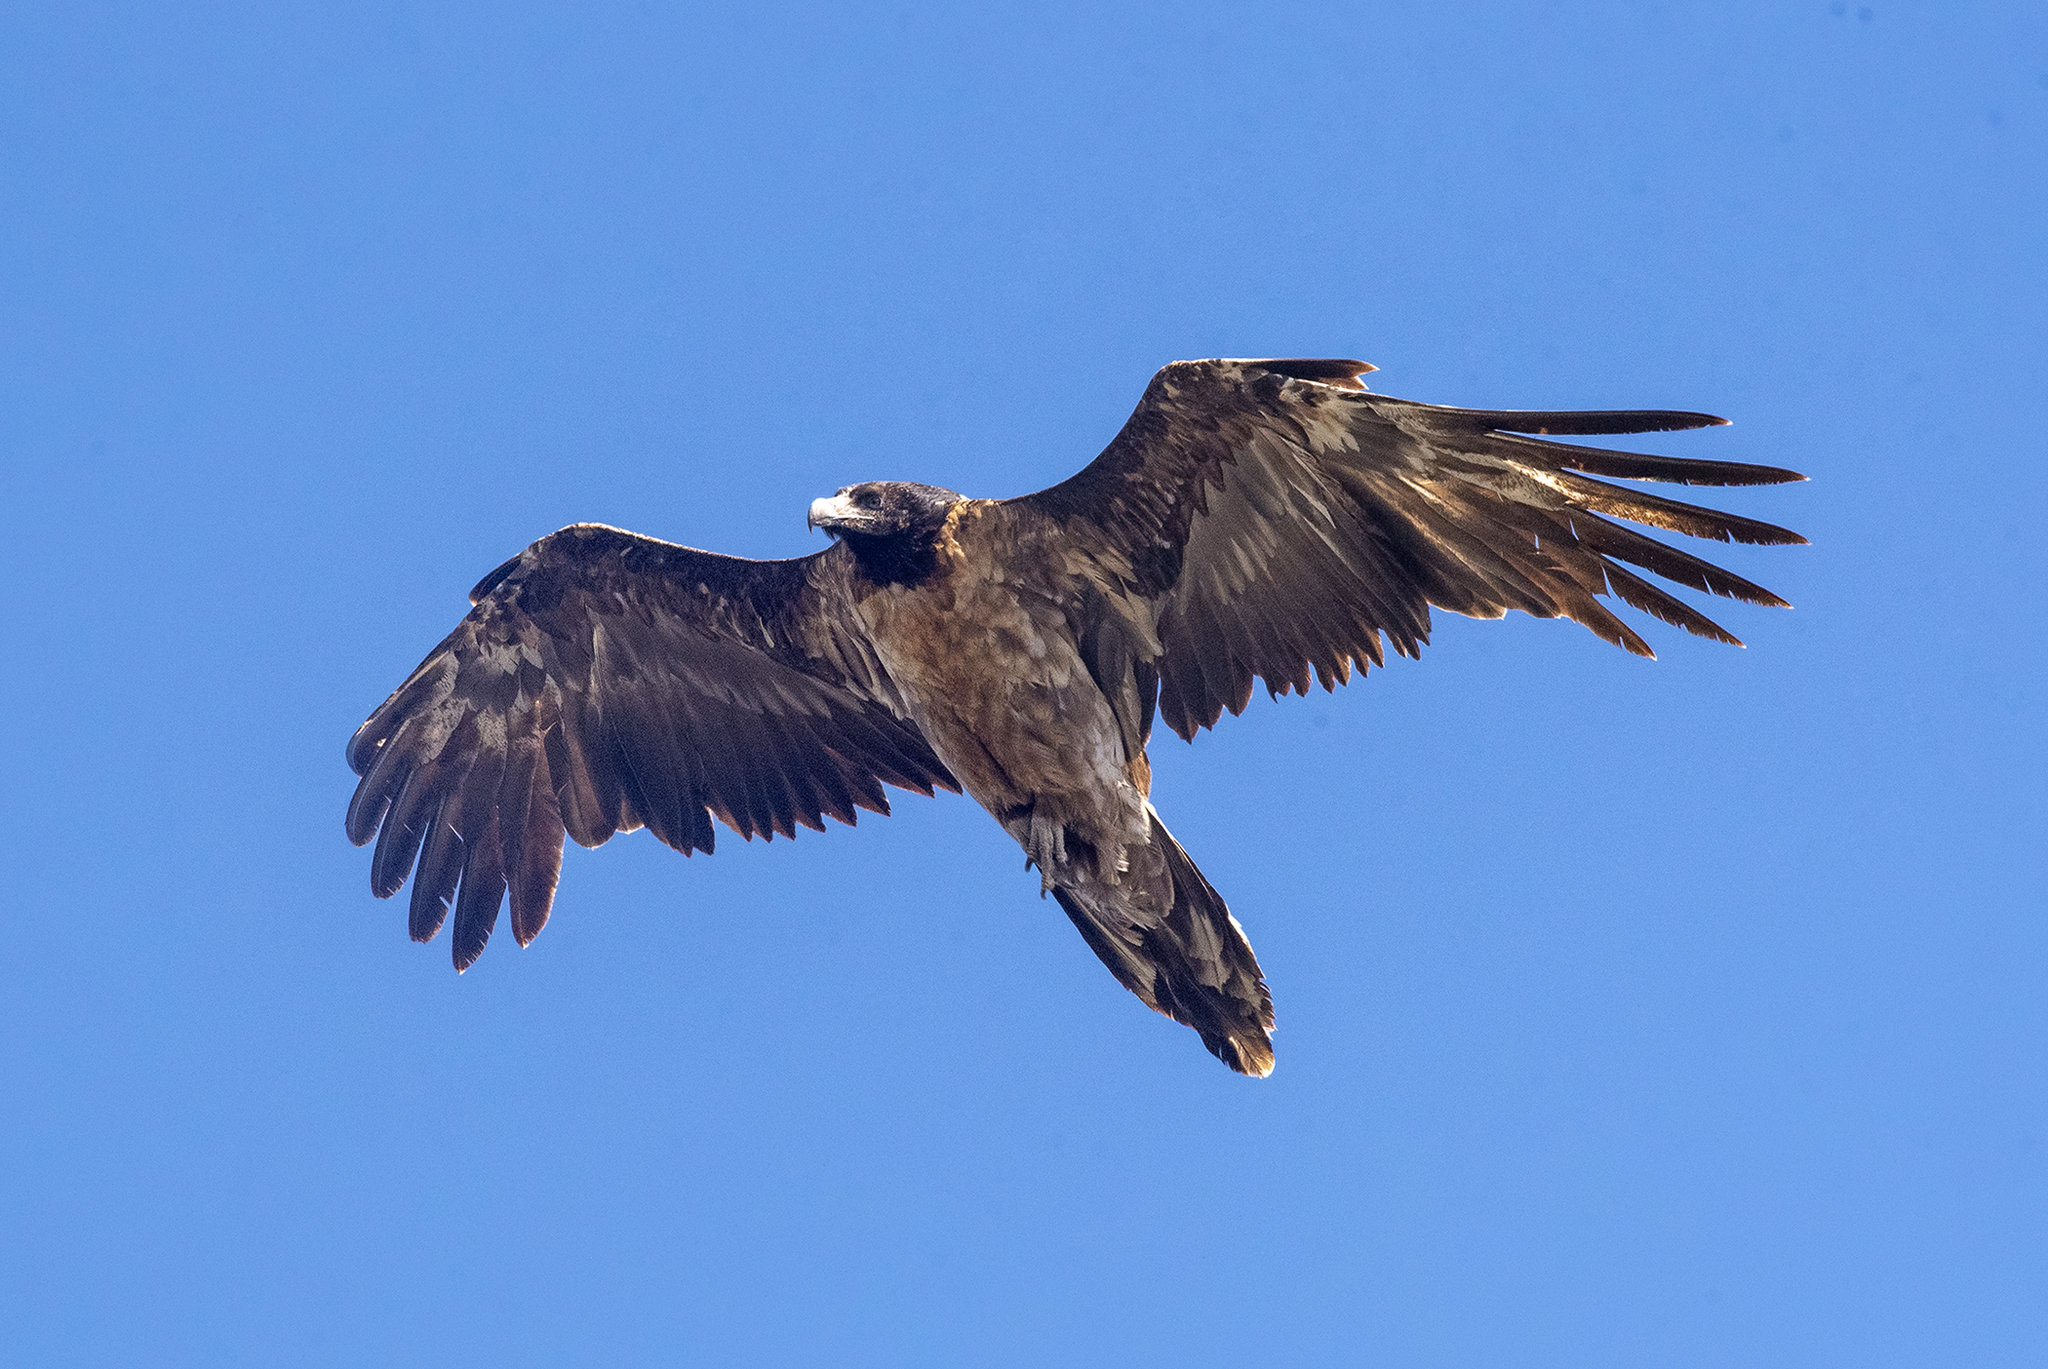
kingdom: Animalia
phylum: Chordata
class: Aves
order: Accipitriformes
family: Accipitridae
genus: Gypaetus
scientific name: Gypaetus barbatus
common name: Bearded vulture
